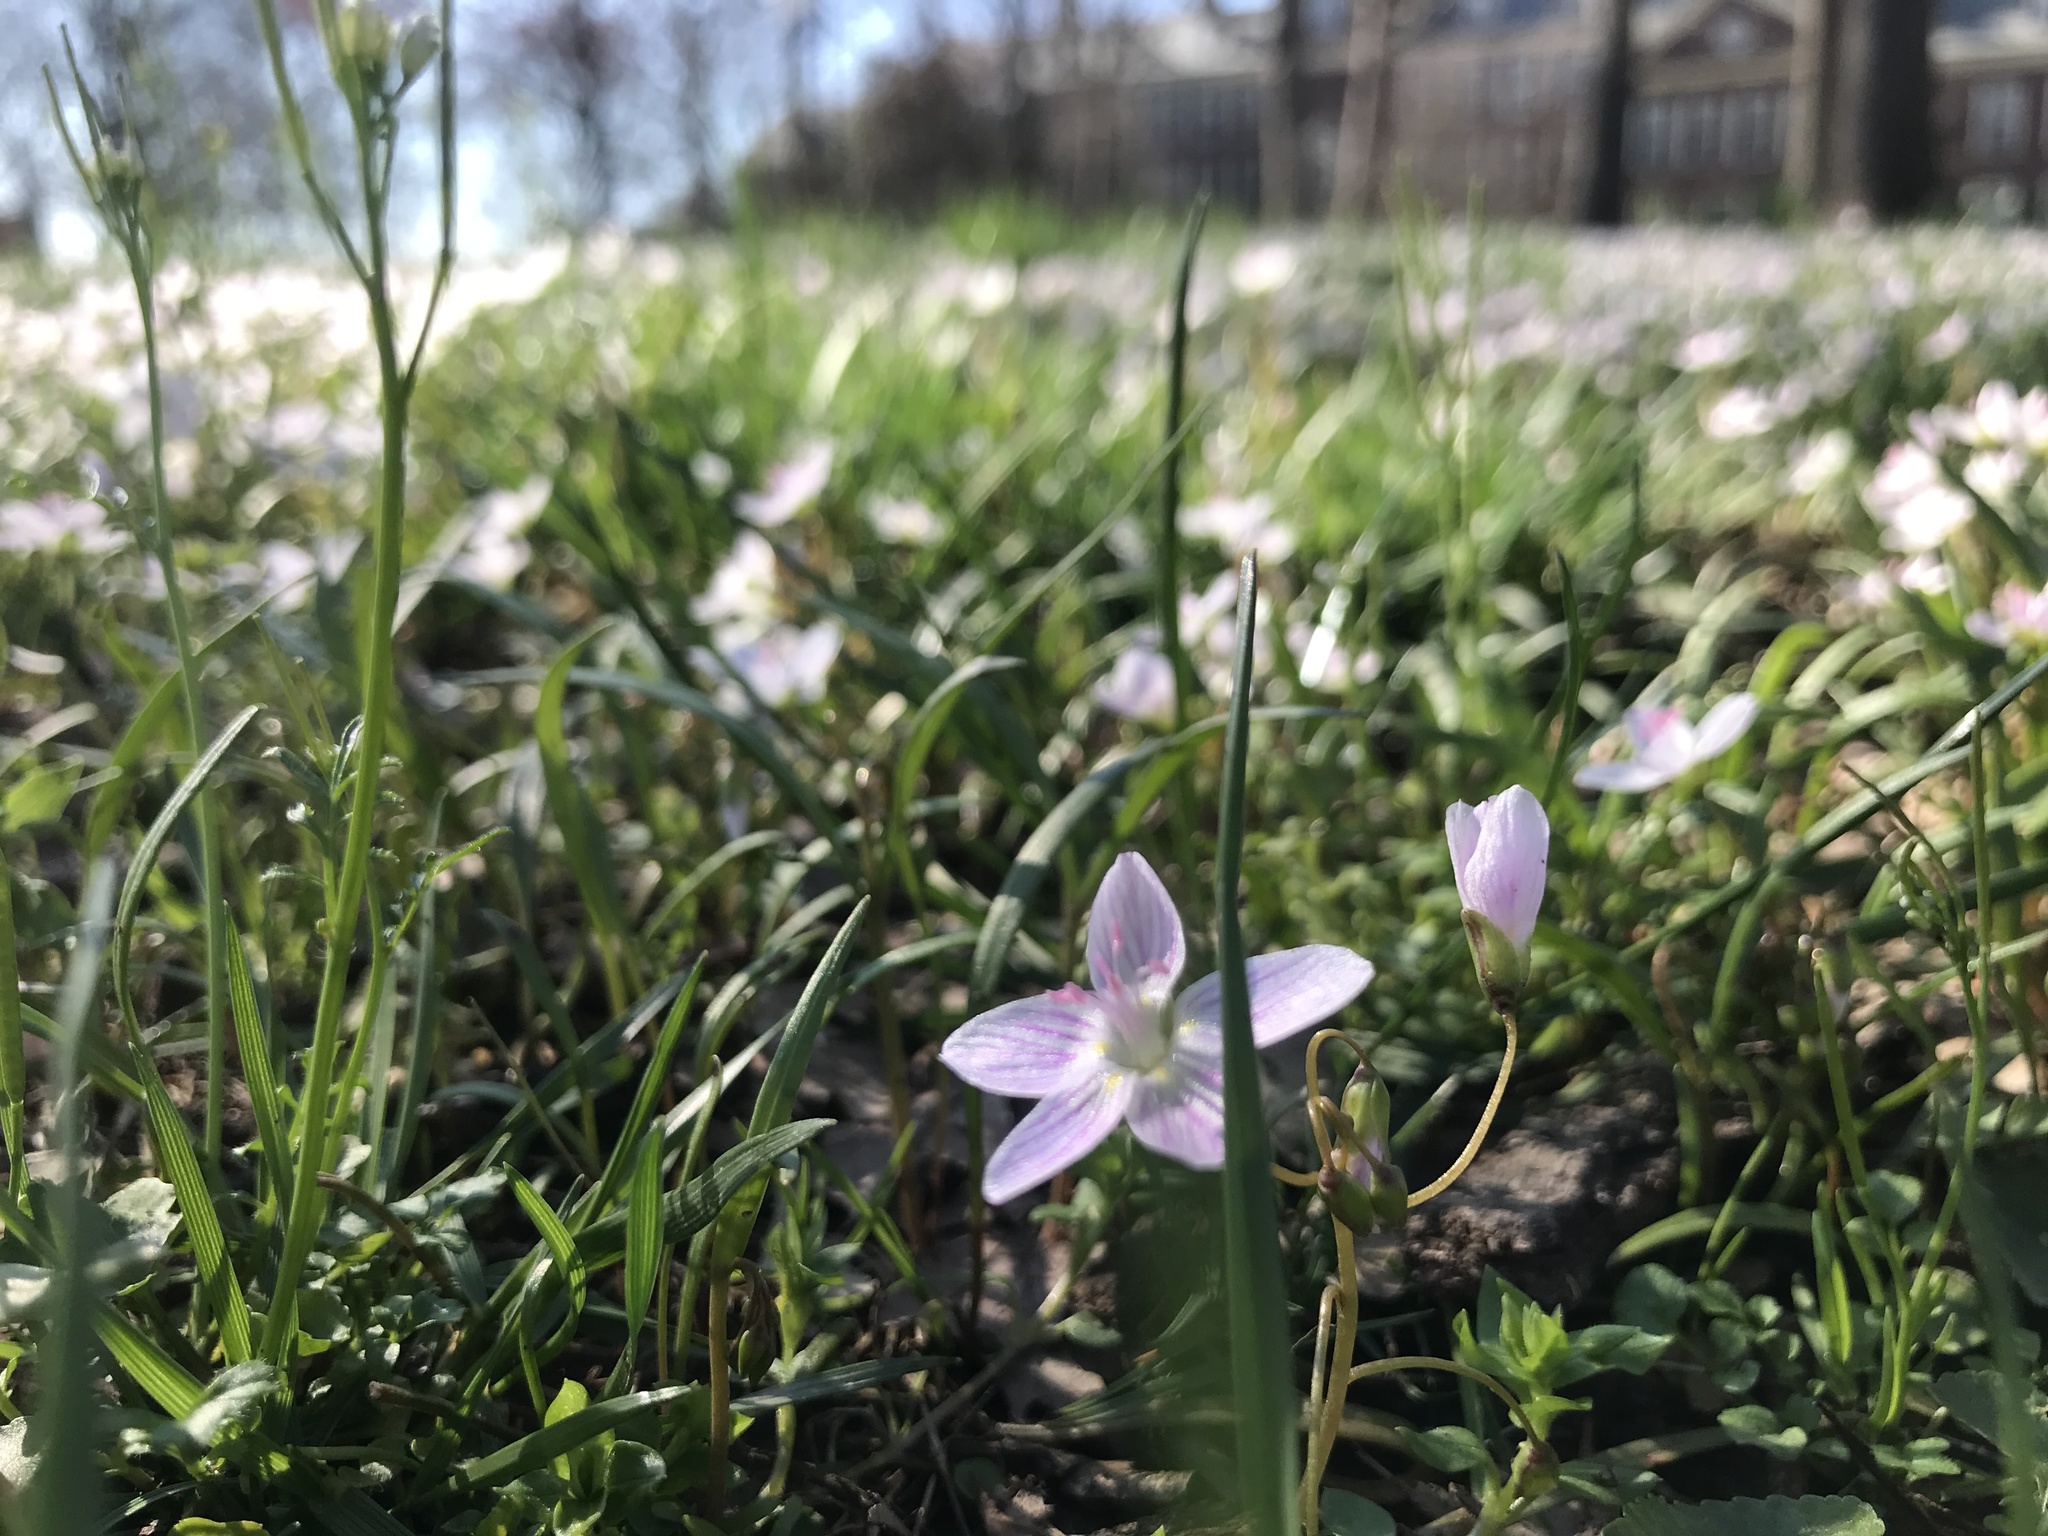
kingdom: Plantae
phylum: Tracheophyta
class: Magnoliopsida
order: Caryophyllales
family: Montiaceae
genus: Claytonia
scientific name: Claytonia virginica
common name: Virginia springbeauty
